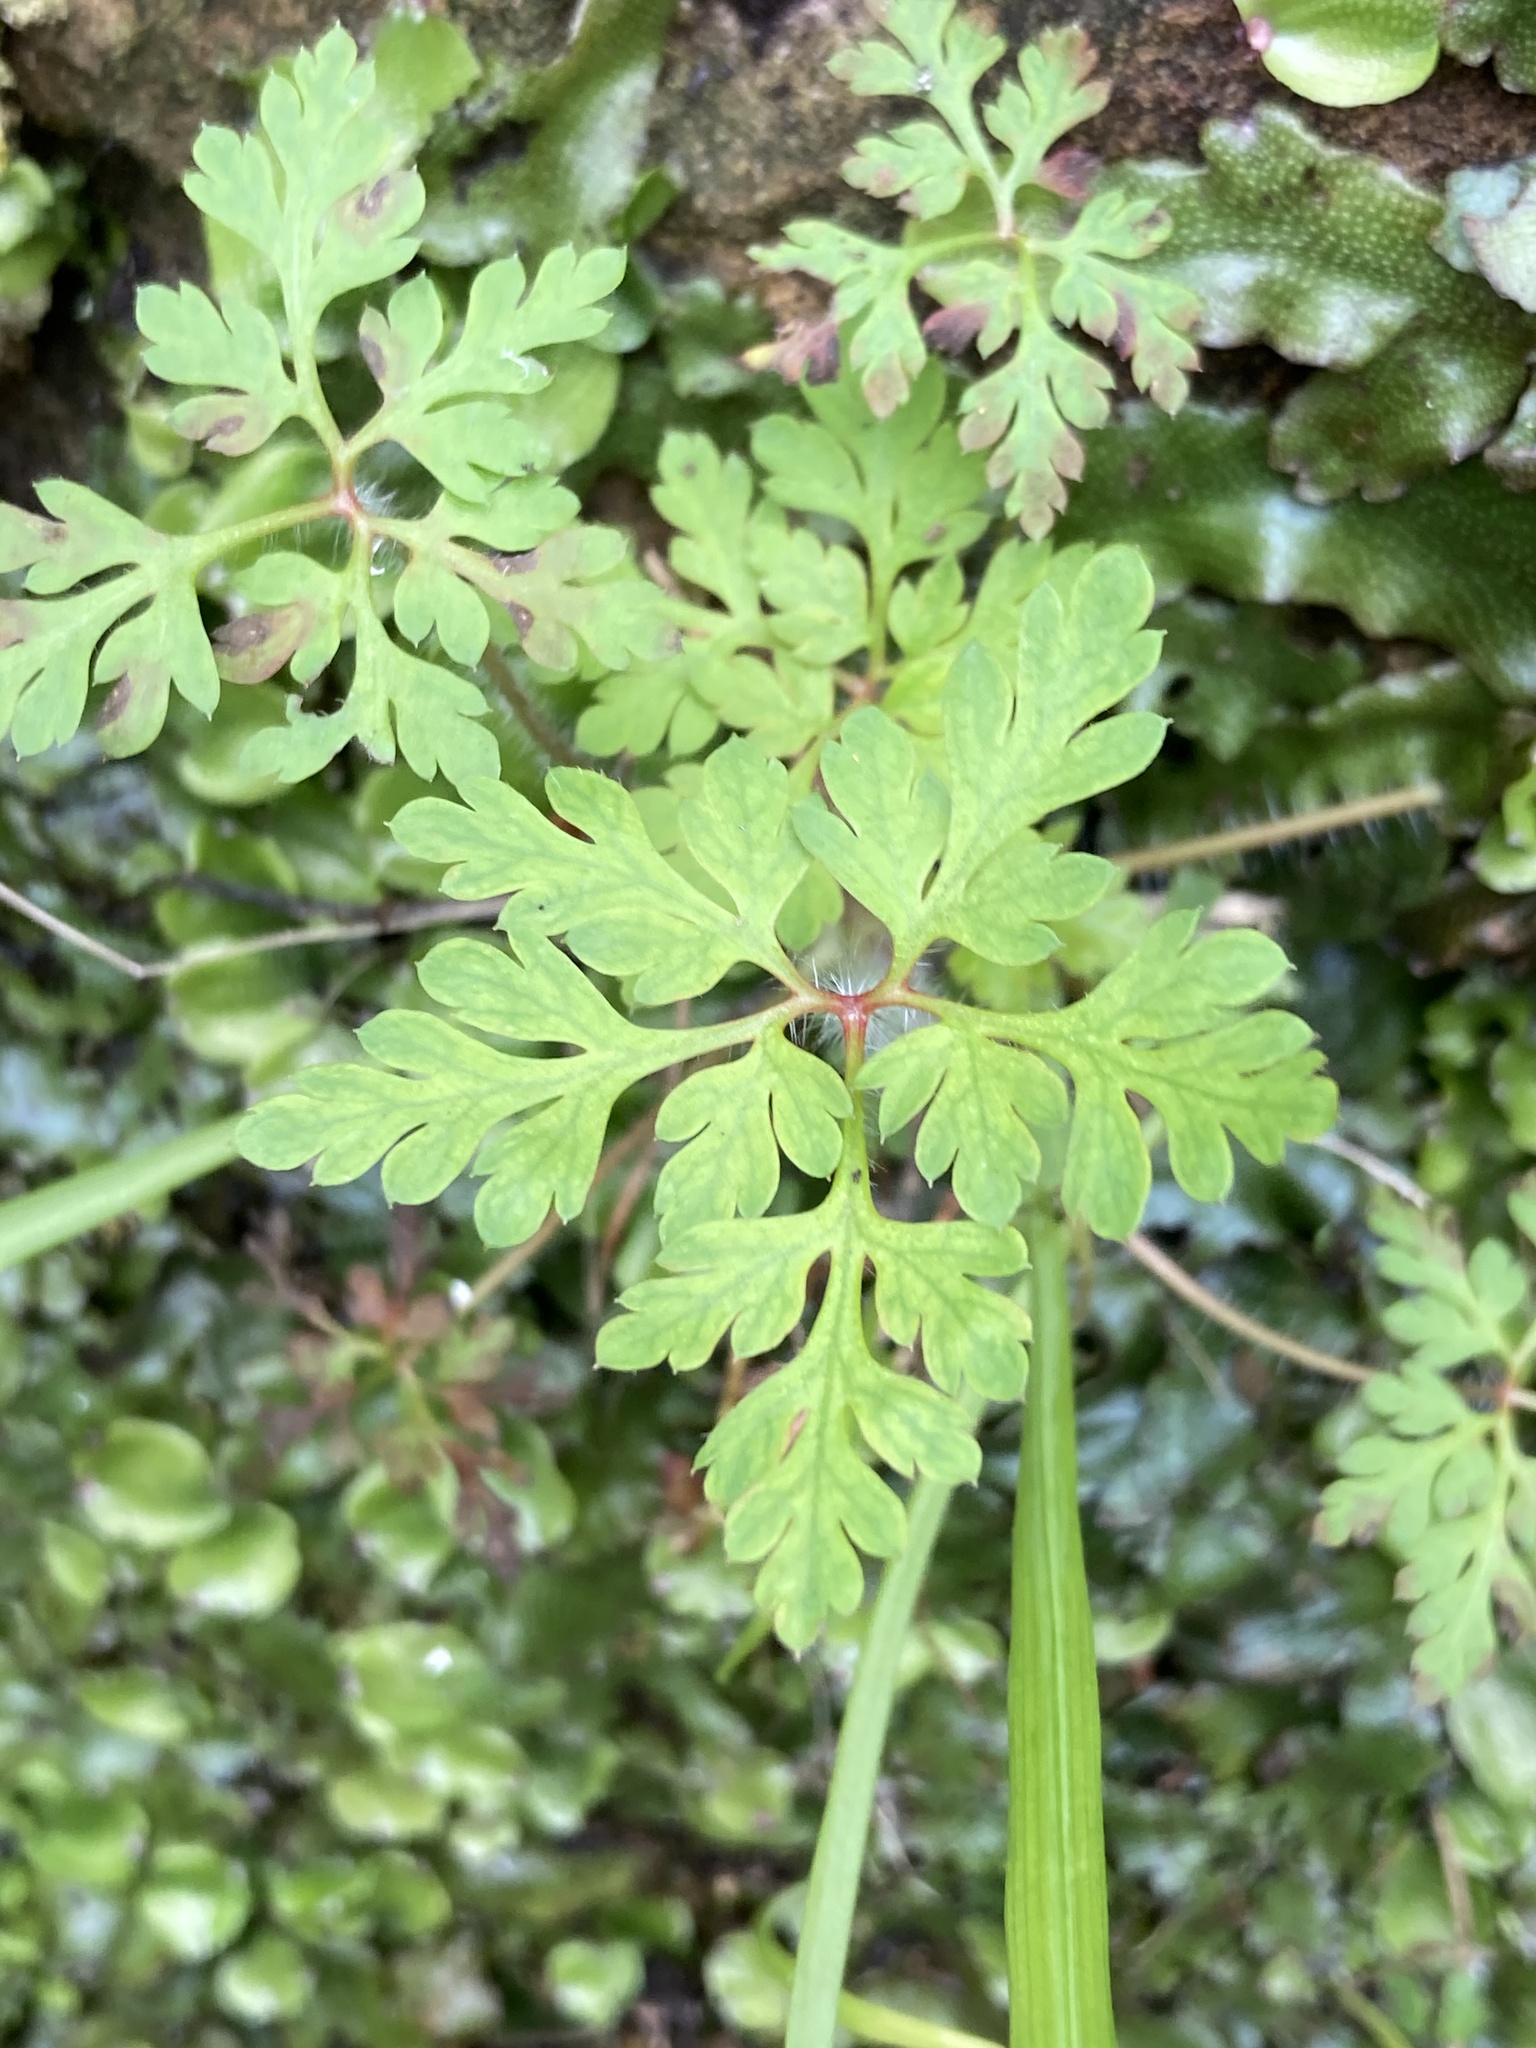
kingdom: Plantae
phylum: Tracheophyta
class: Magnoliopsida
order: Geraniales
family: Geraniaceae
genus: Geranium
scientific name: Geranium robertianum
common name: Herb-robert
